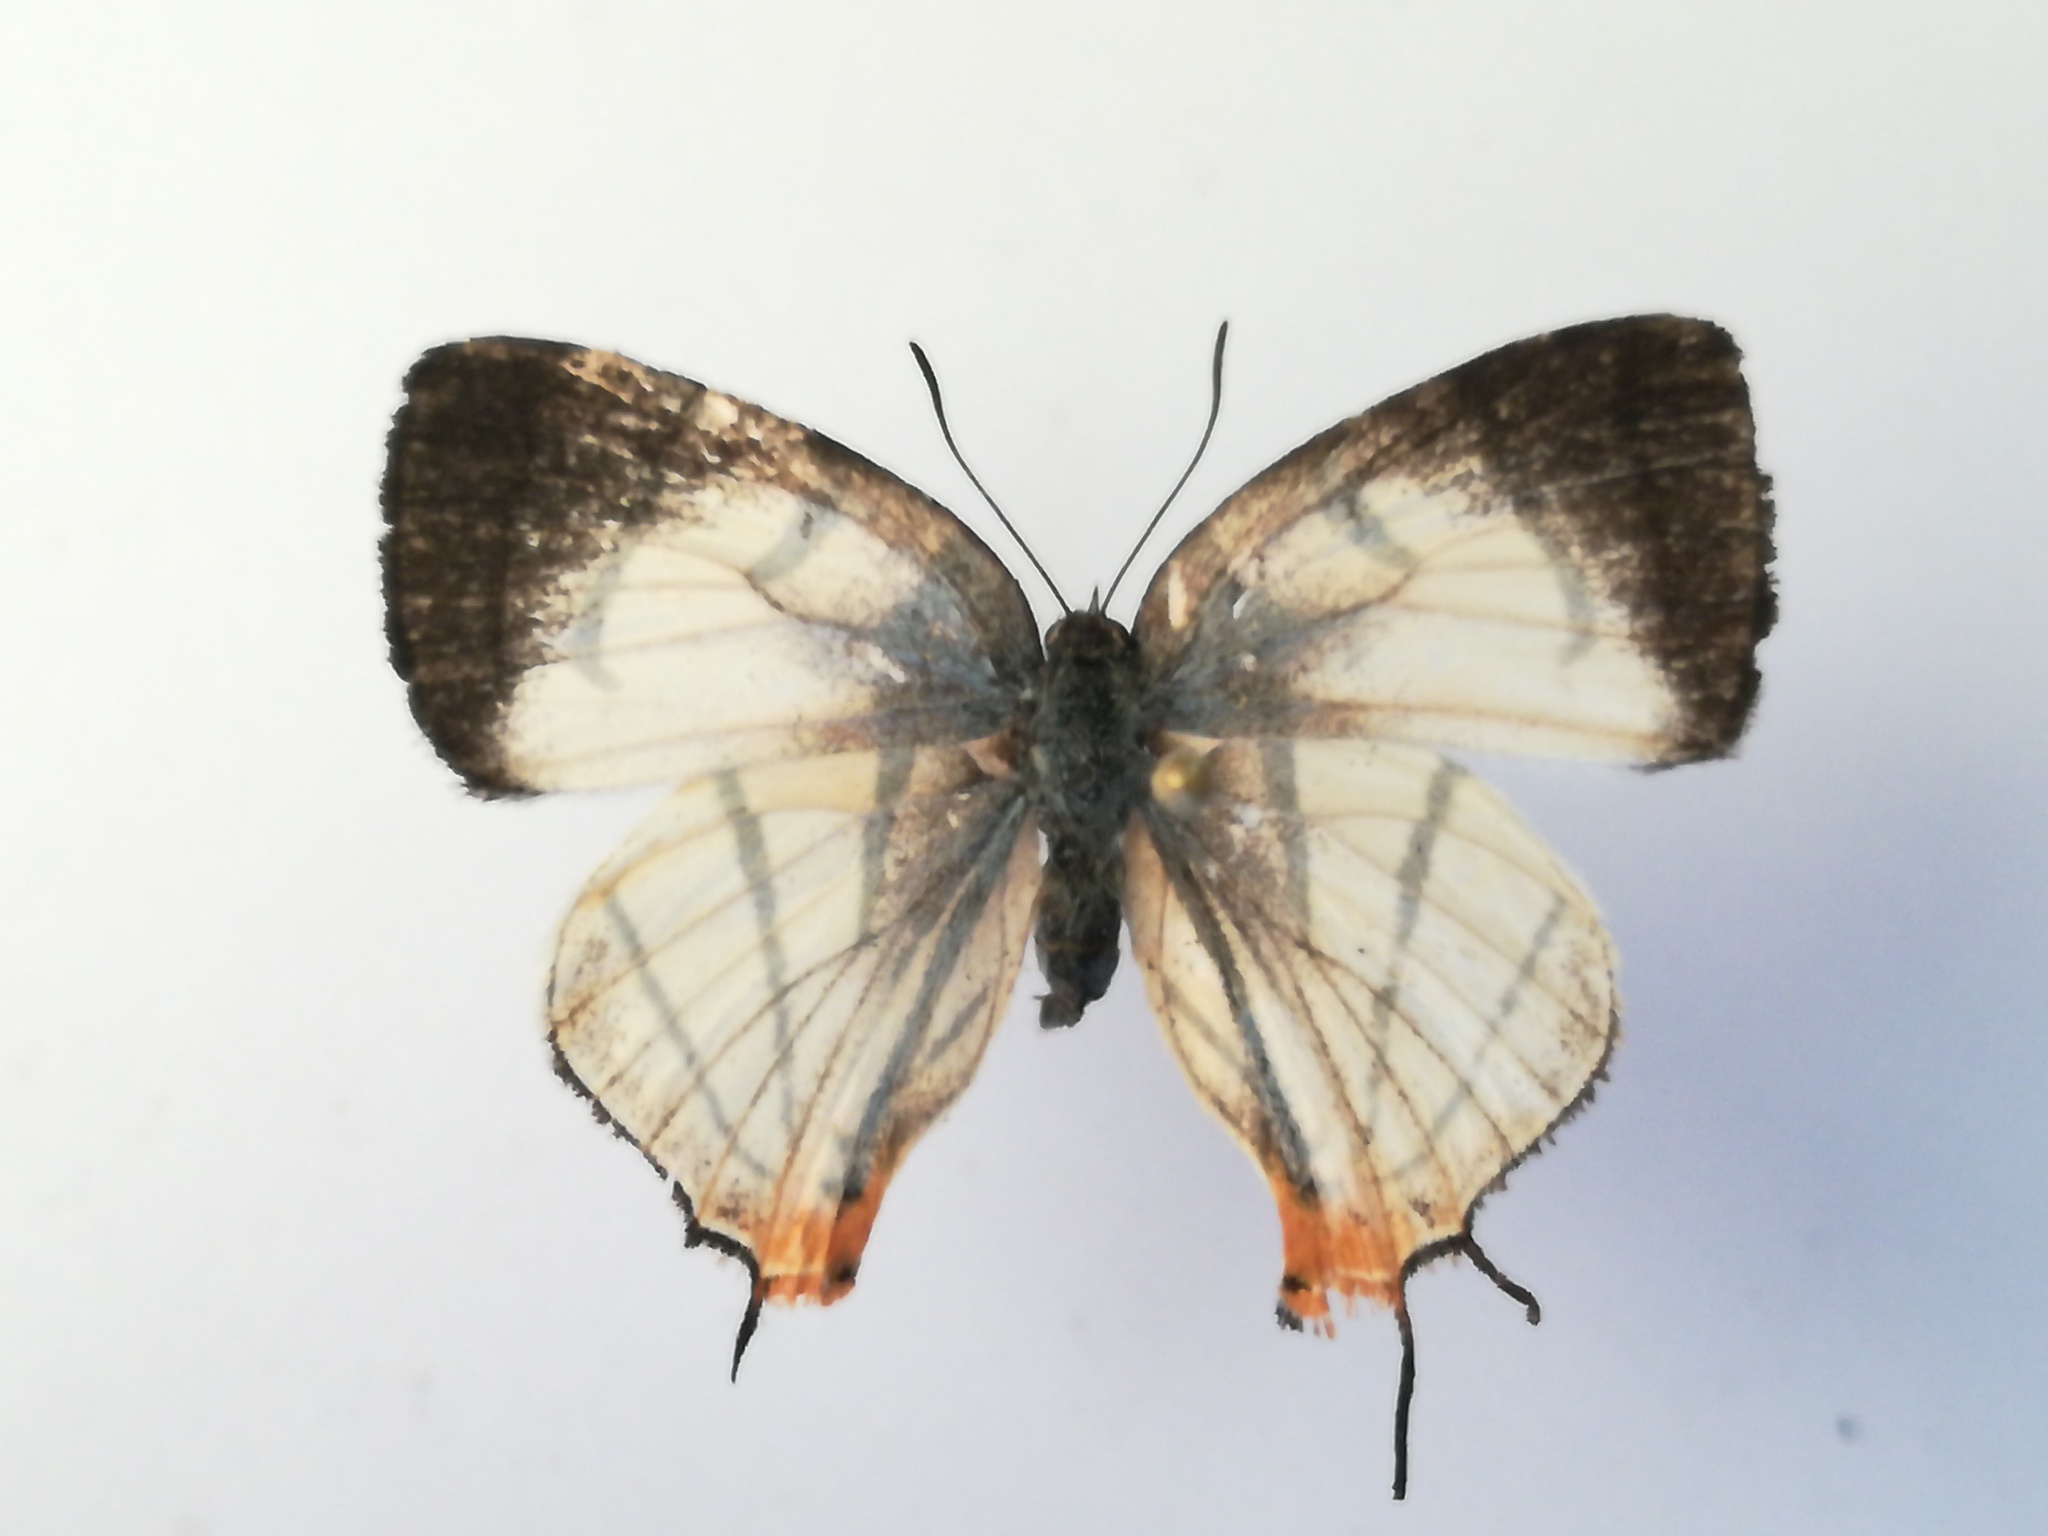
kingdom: Animalia
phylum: Arthropoda
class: Insecta
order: Lepidoptera
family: Lycaenidae
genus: Arawacus
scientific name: Arawacus sito
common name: Fine-lined hairstreak
